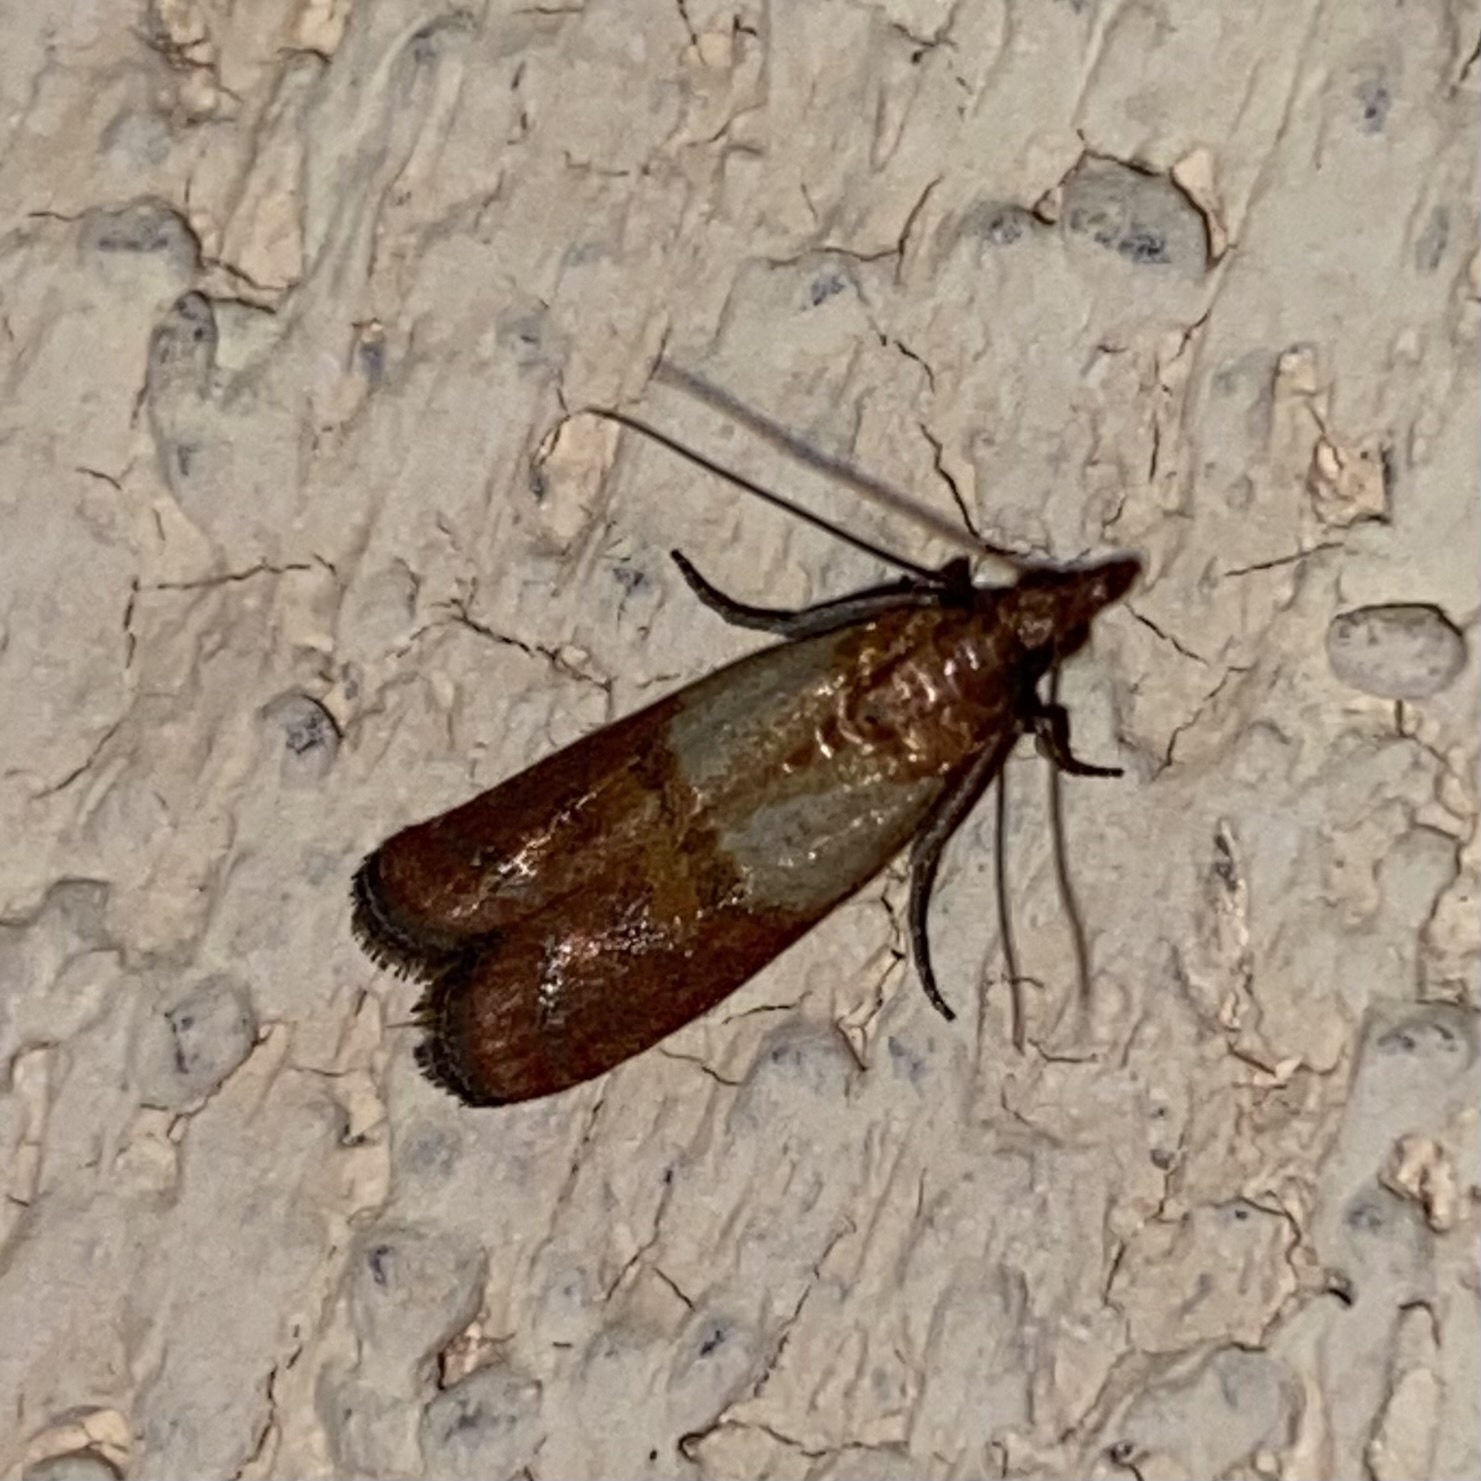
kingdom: Animalia
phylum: Arthropoda
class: Insecta
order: Lepidoptera
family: Pyralidae
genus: Plodia
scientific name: Plodia interpunctella
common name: Indian meal moth
